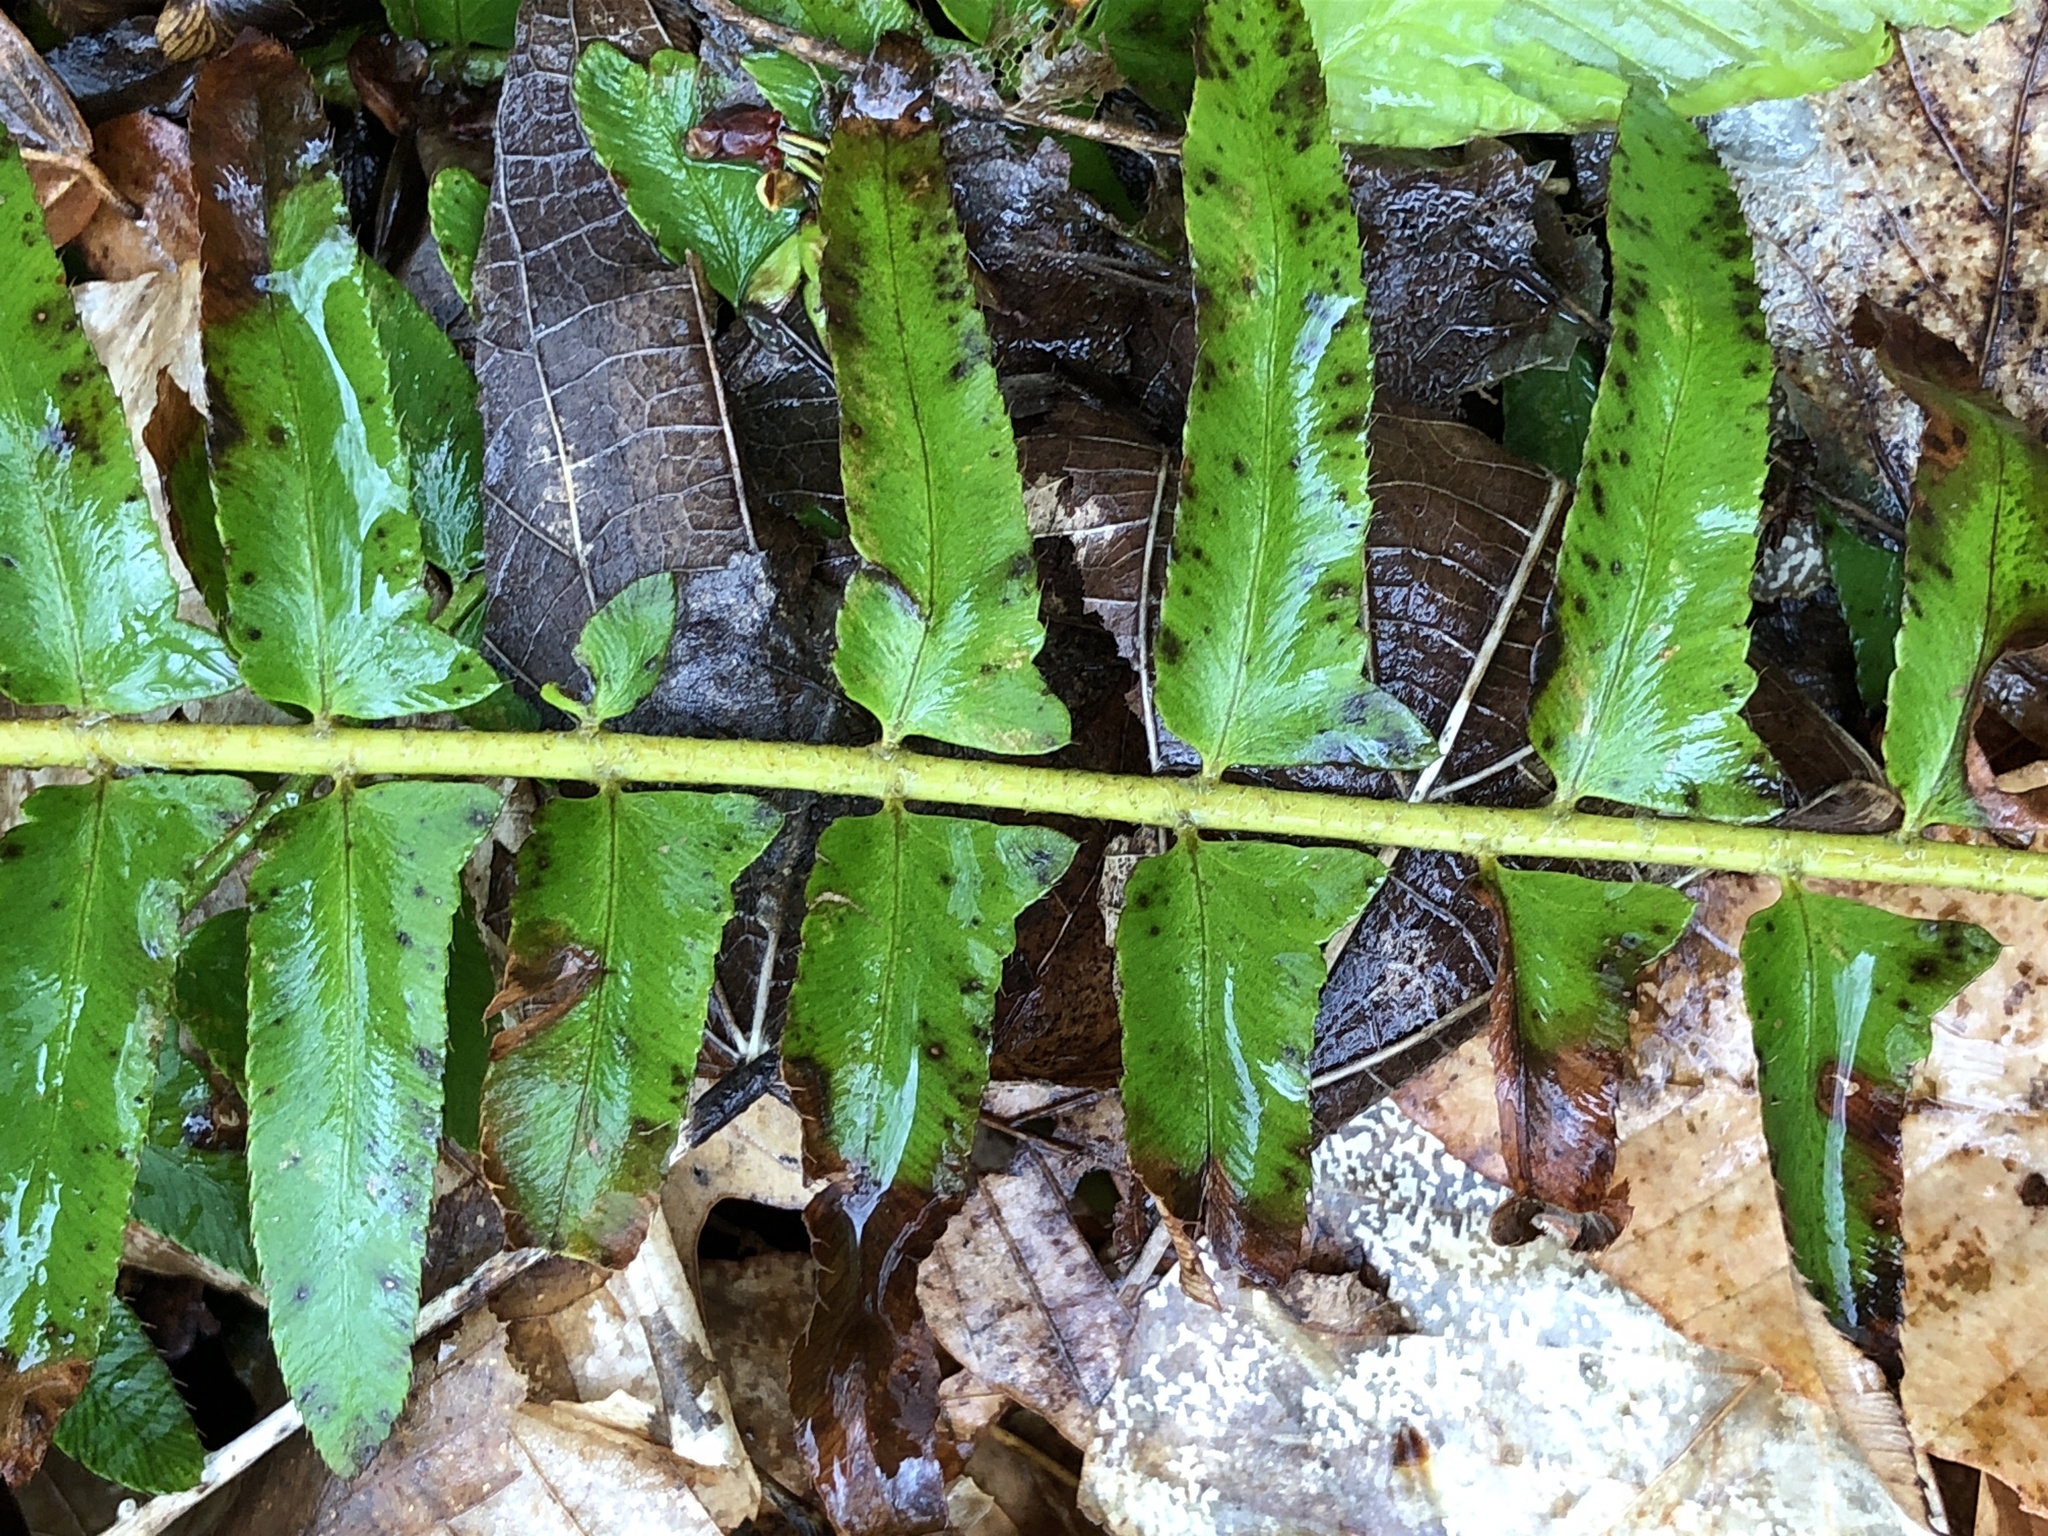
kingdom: Plantae
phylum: Tracheophyta
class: Polypodiopsida
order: Polypodiales
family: Dryopteridaceae
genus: Polystichum
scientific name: Polystichum acrostichoides
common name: Christmas fern
